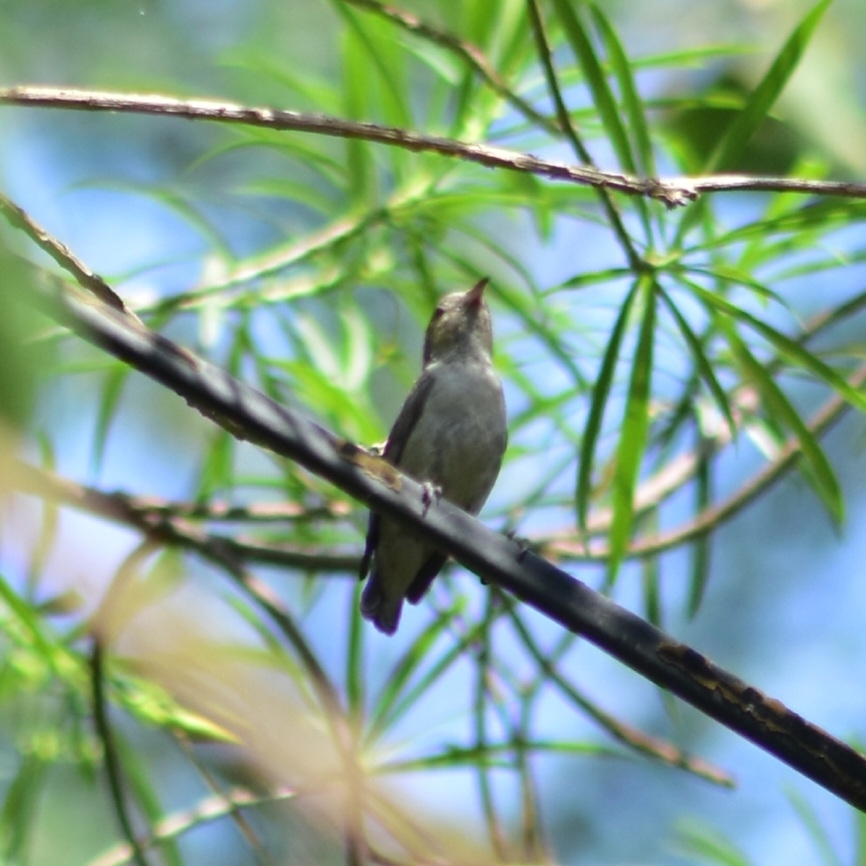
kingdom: Animalia
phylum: Chordata
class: Aves
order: Passeriformes
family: Dicaeidae
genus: Dicaeum
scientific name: Dicaeum erythrorhynchos
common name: Pale-billed flowerpecker
